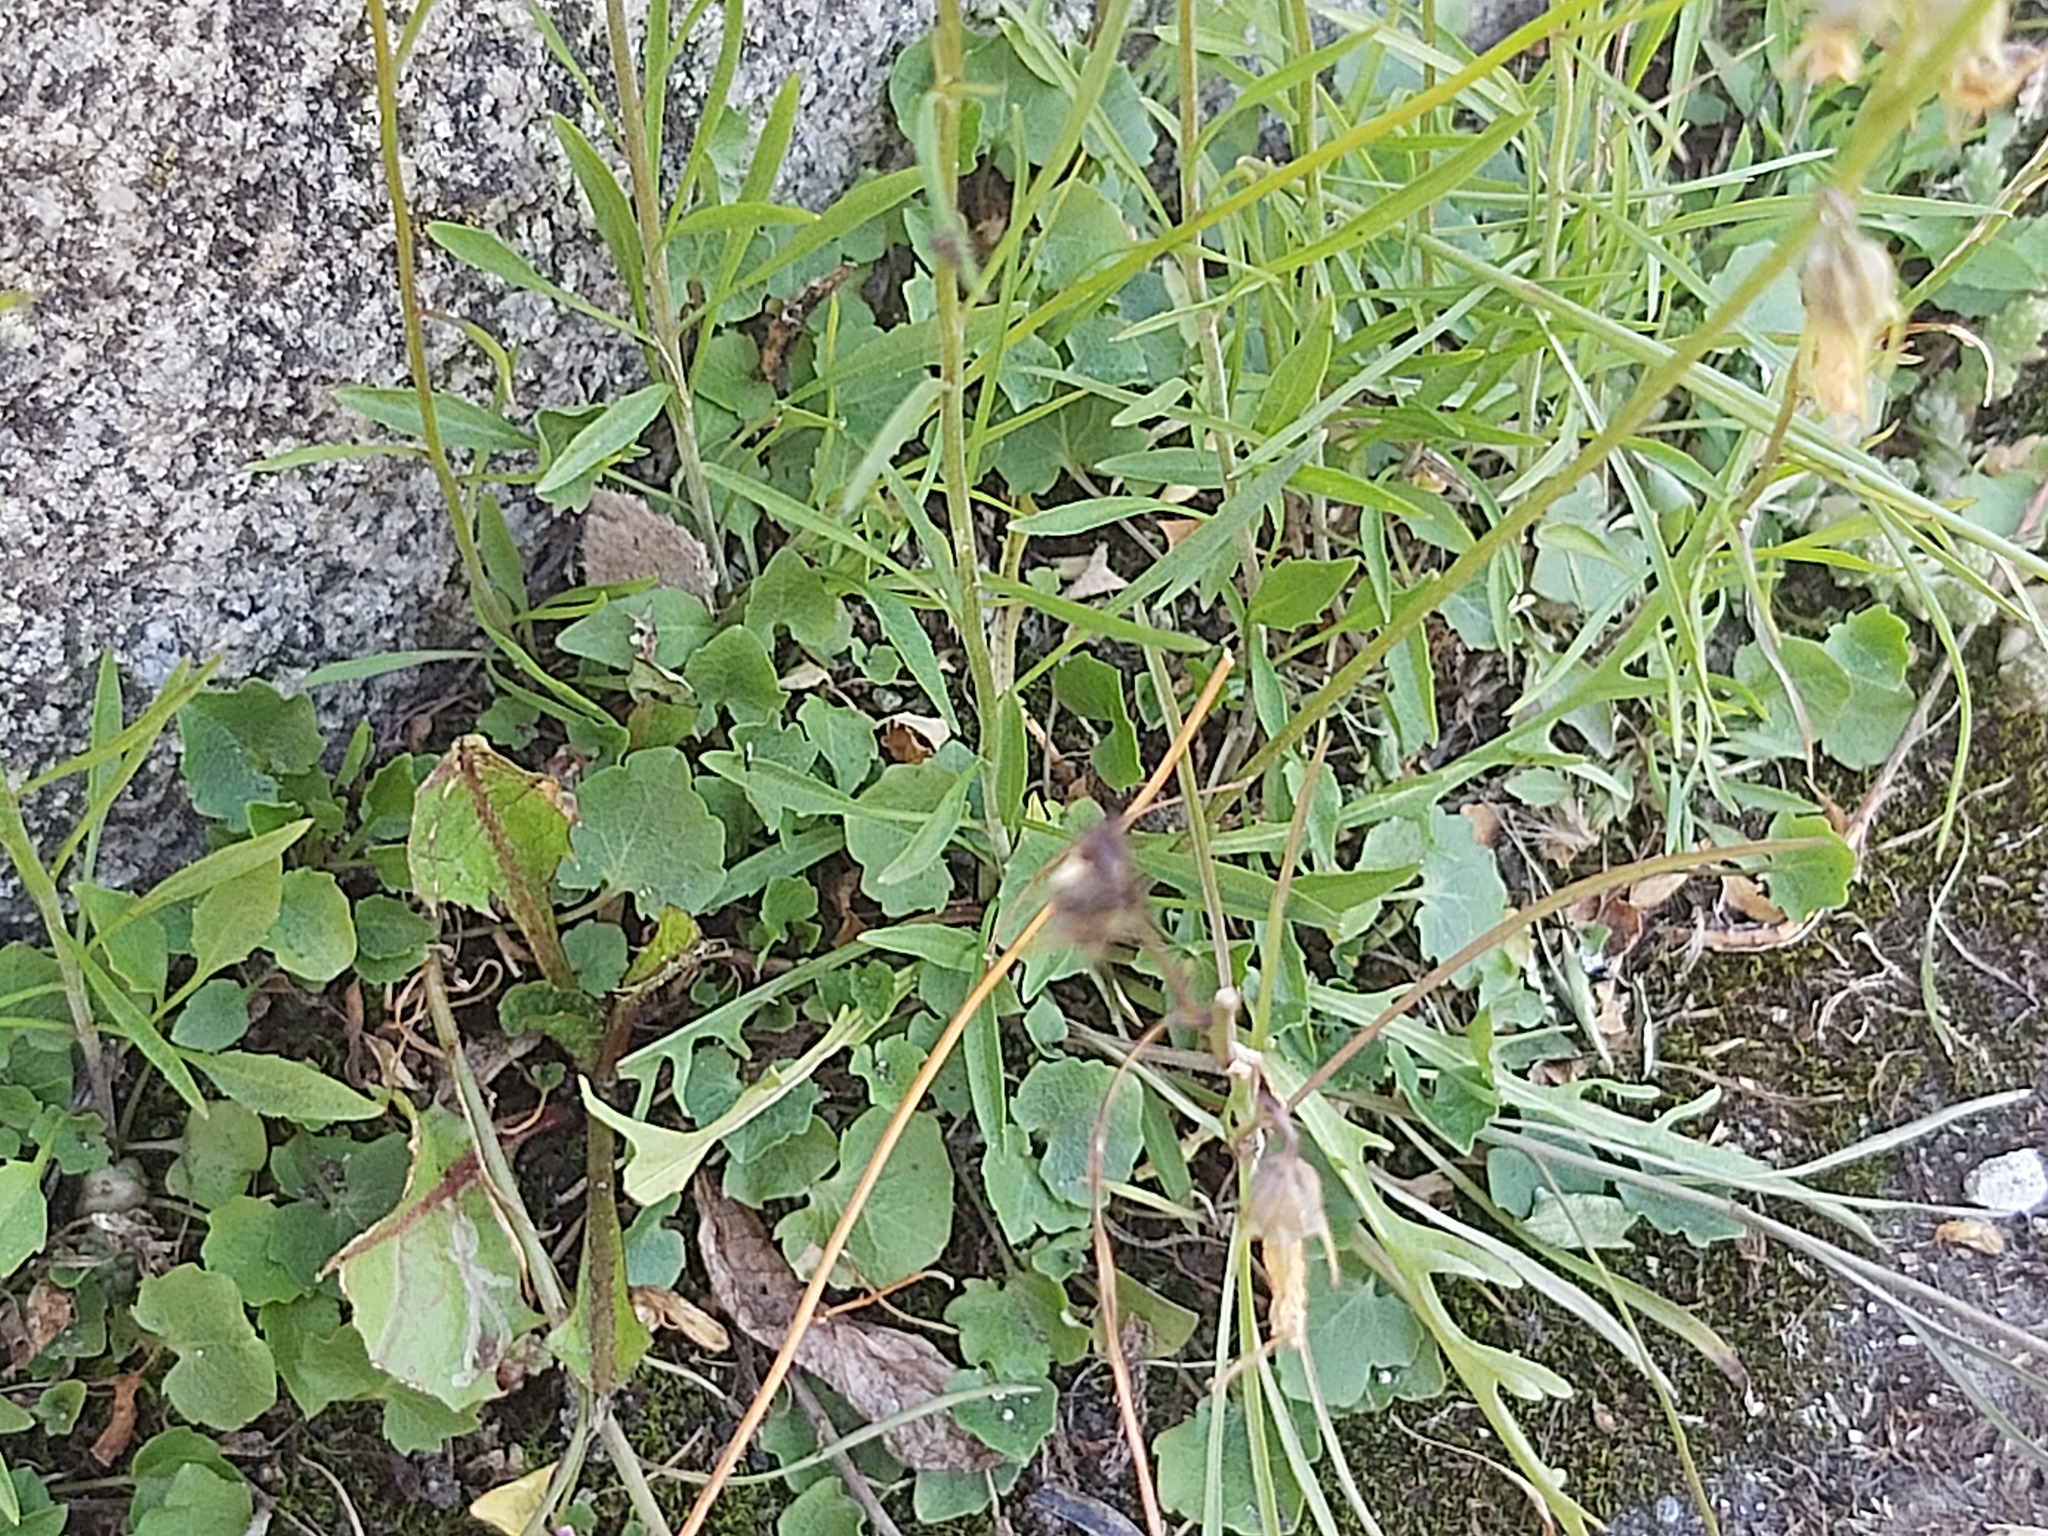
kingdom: Plantae
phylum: Tracheophyta
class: Magnoliopsida
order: Asterales
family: Campanulaceae
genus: Campanula
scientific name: Campanula rotundifolia
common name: Harebell
